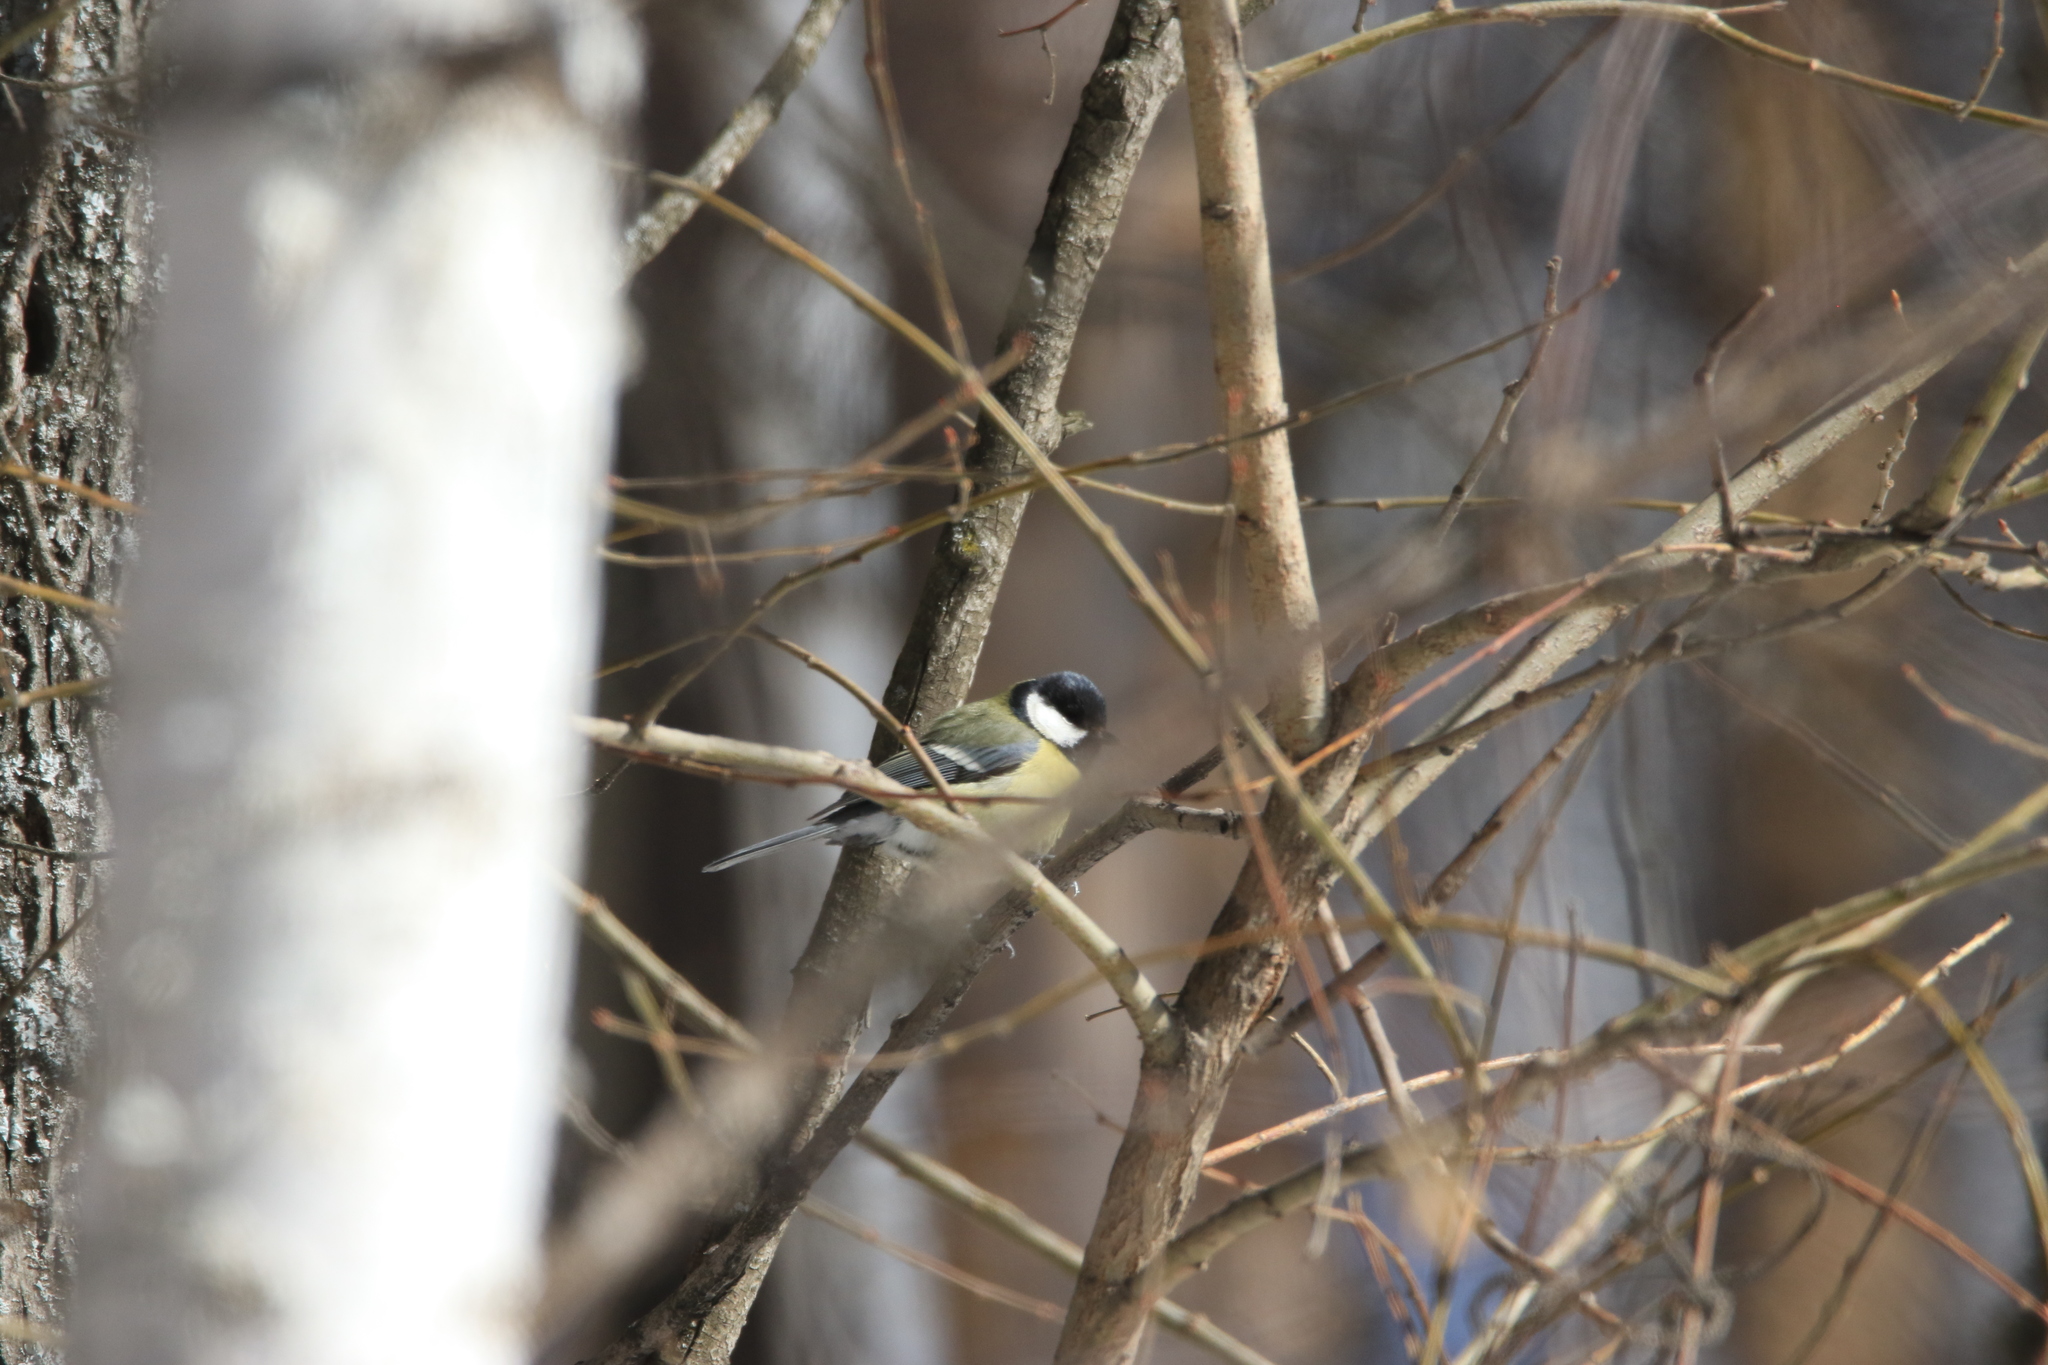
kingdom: Animalia
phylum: Chordata
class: Aves
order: Passeriformes
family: Paridae
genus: Parus
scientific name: Parus major
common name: Great tit
